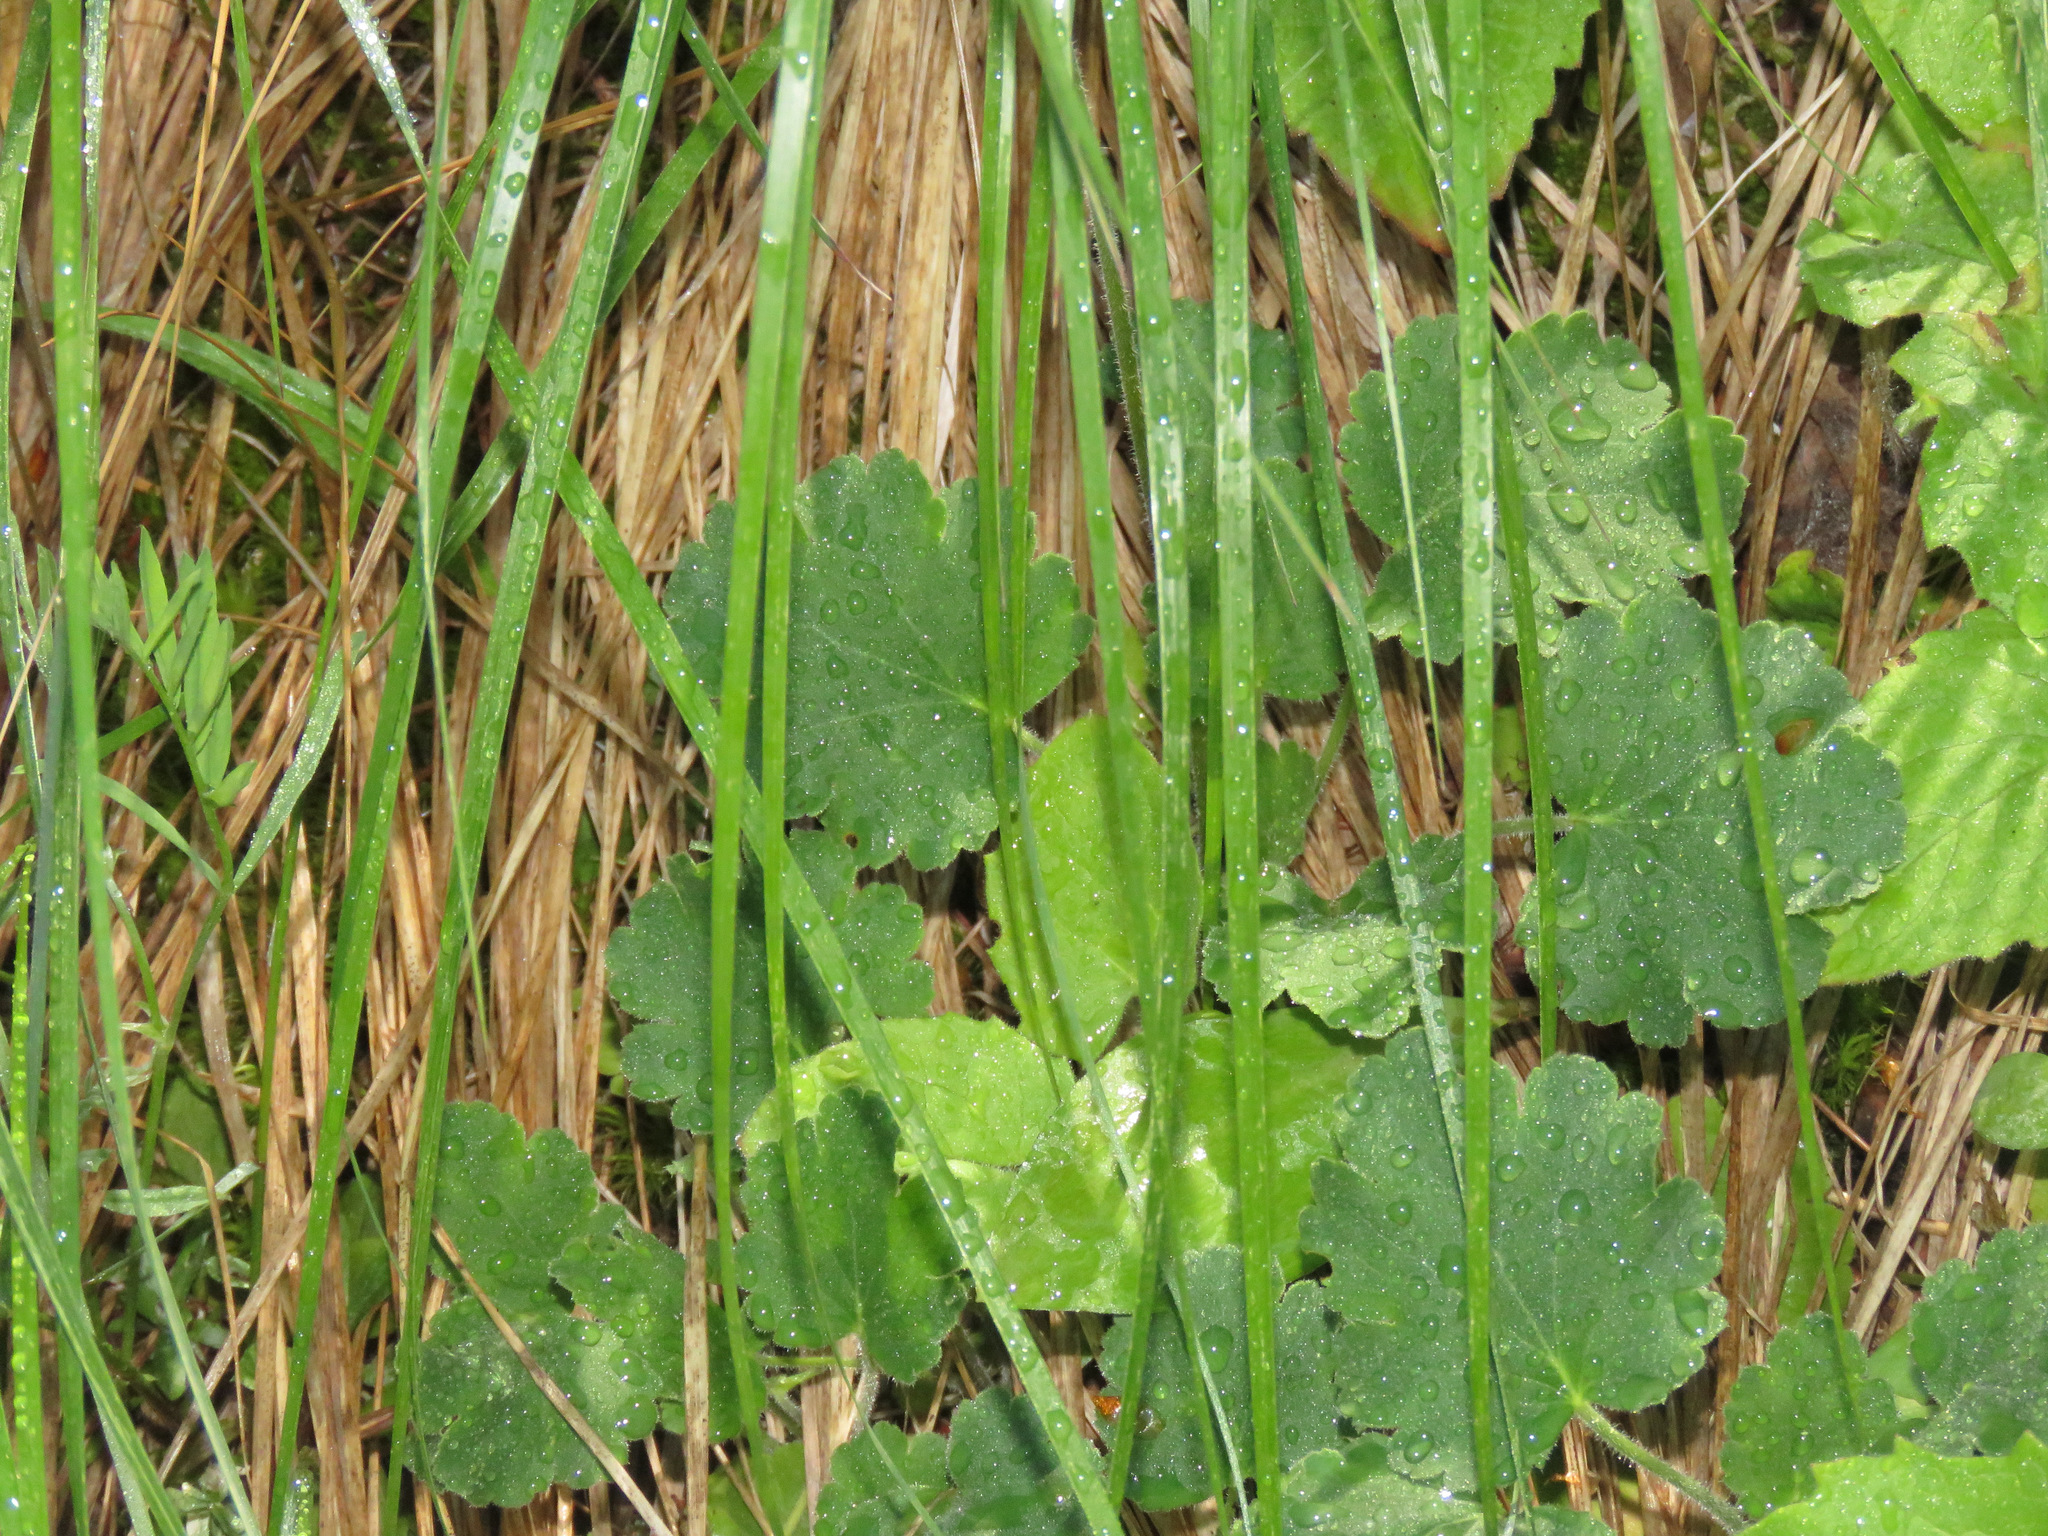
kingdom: Plantae
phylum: Tracheophyta
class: Magnoliopsida
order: Saxifragales
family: Saxifragaceae
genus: Heuchera
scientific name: Heuchera cylindrica
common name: Mat alumroot
